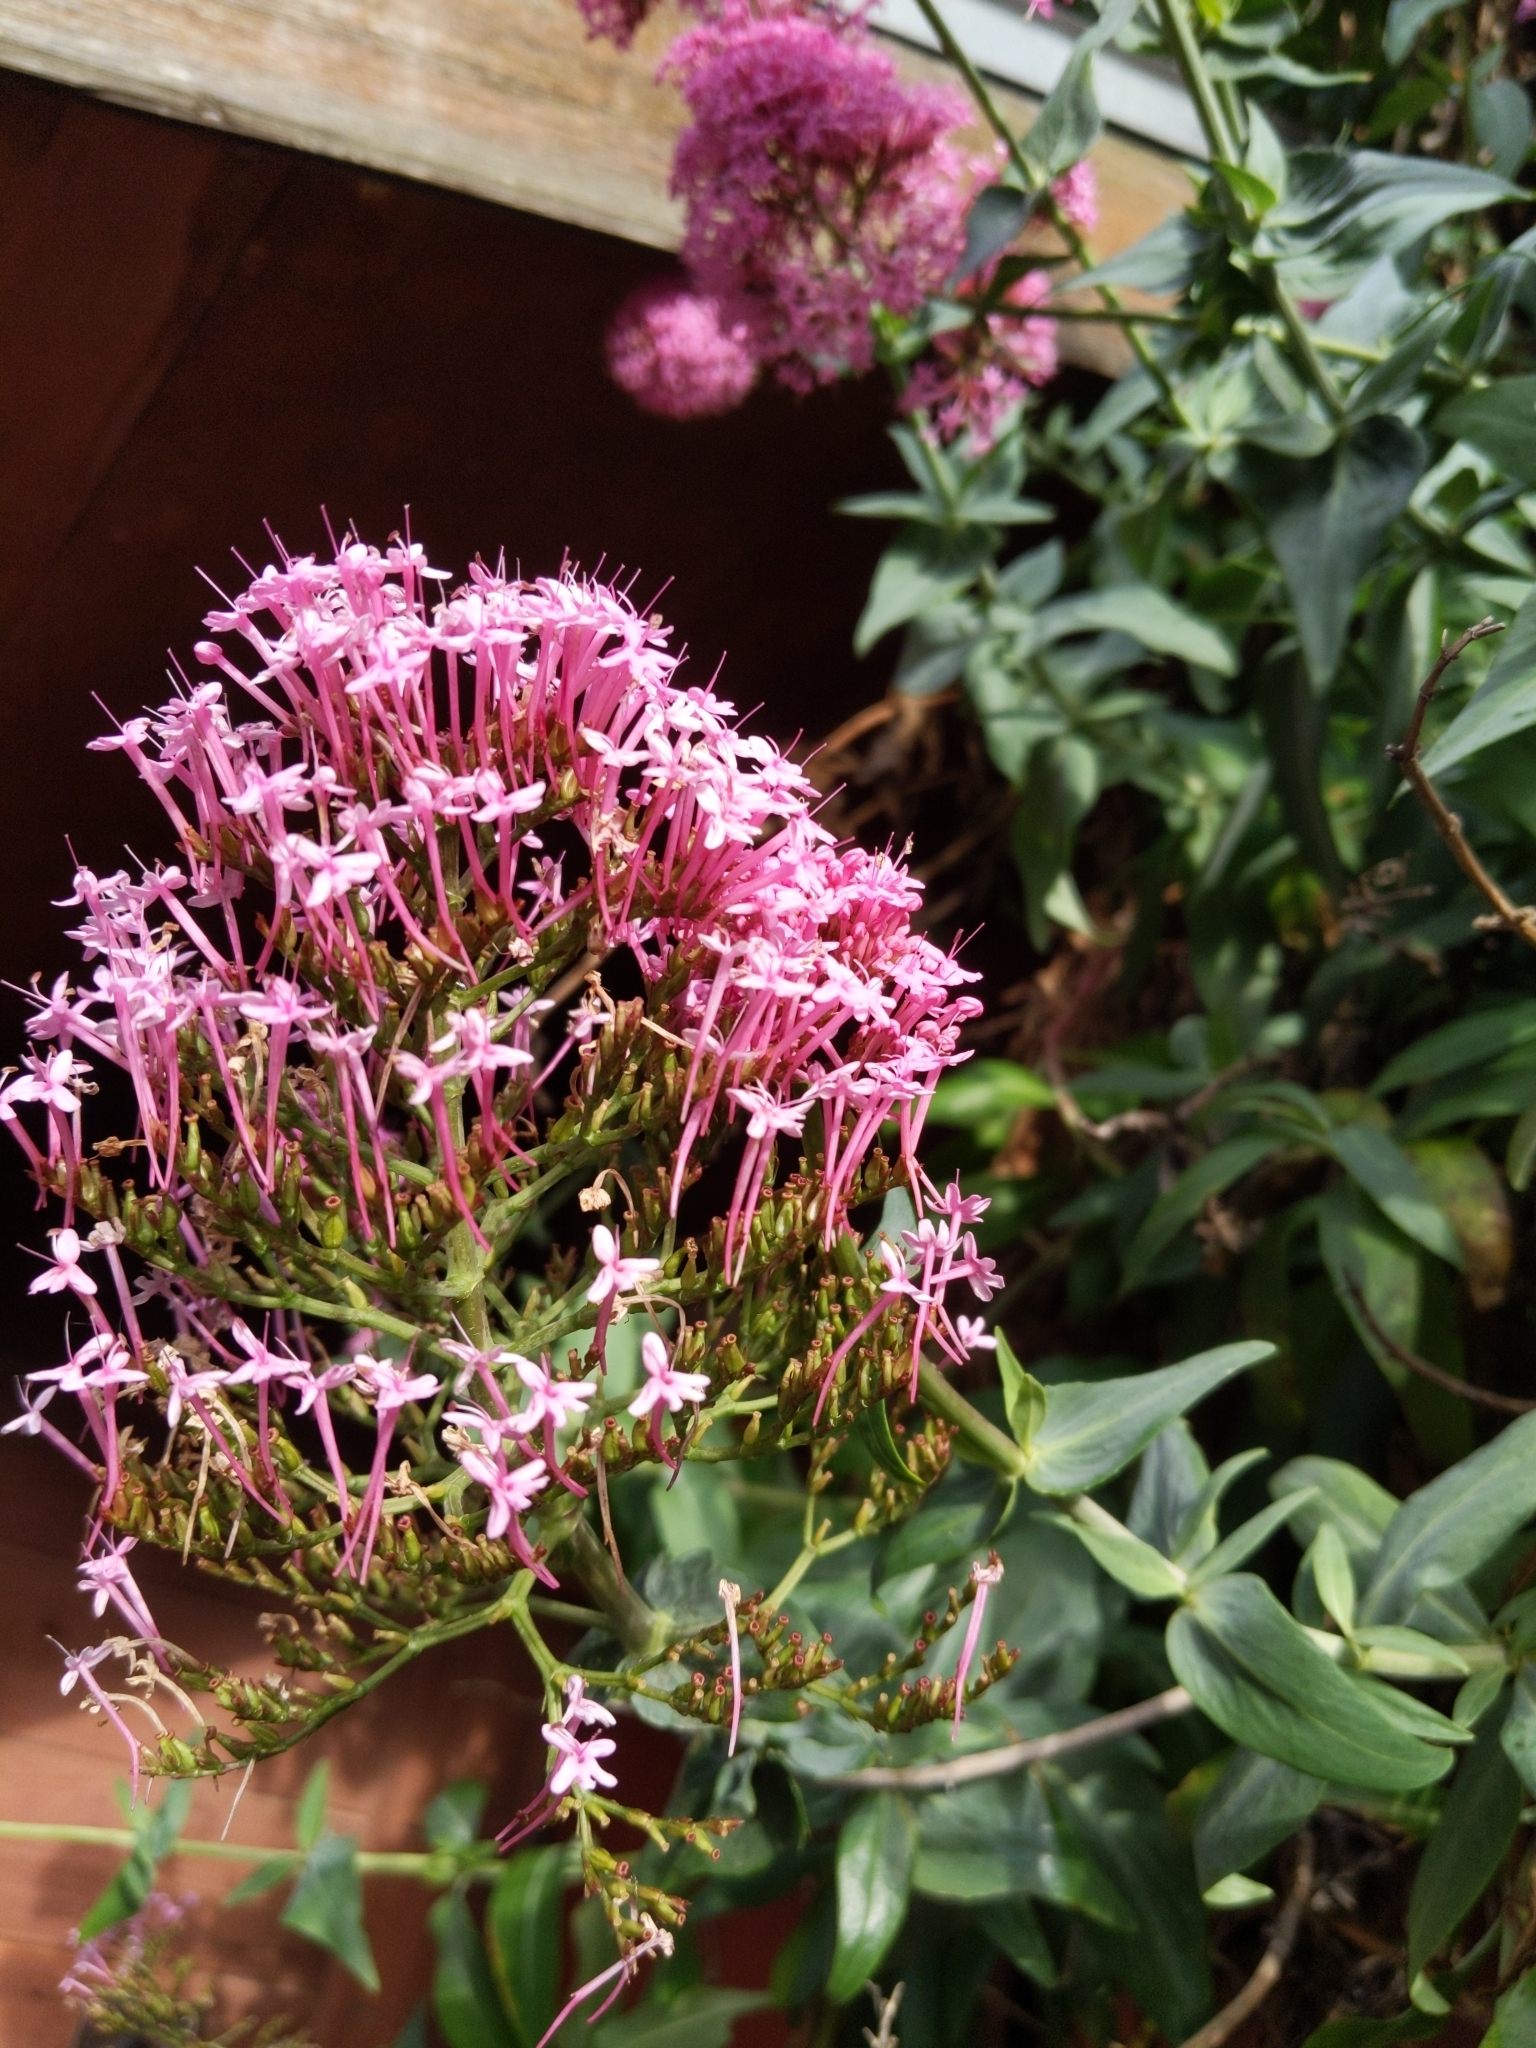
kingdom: Plantae
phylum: Tracheophyta
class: Magnoliopsida
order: Dipsacales
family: Caprifoliaceae
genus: Centranthus
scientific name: Centranthus ruber
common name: Red valerian
